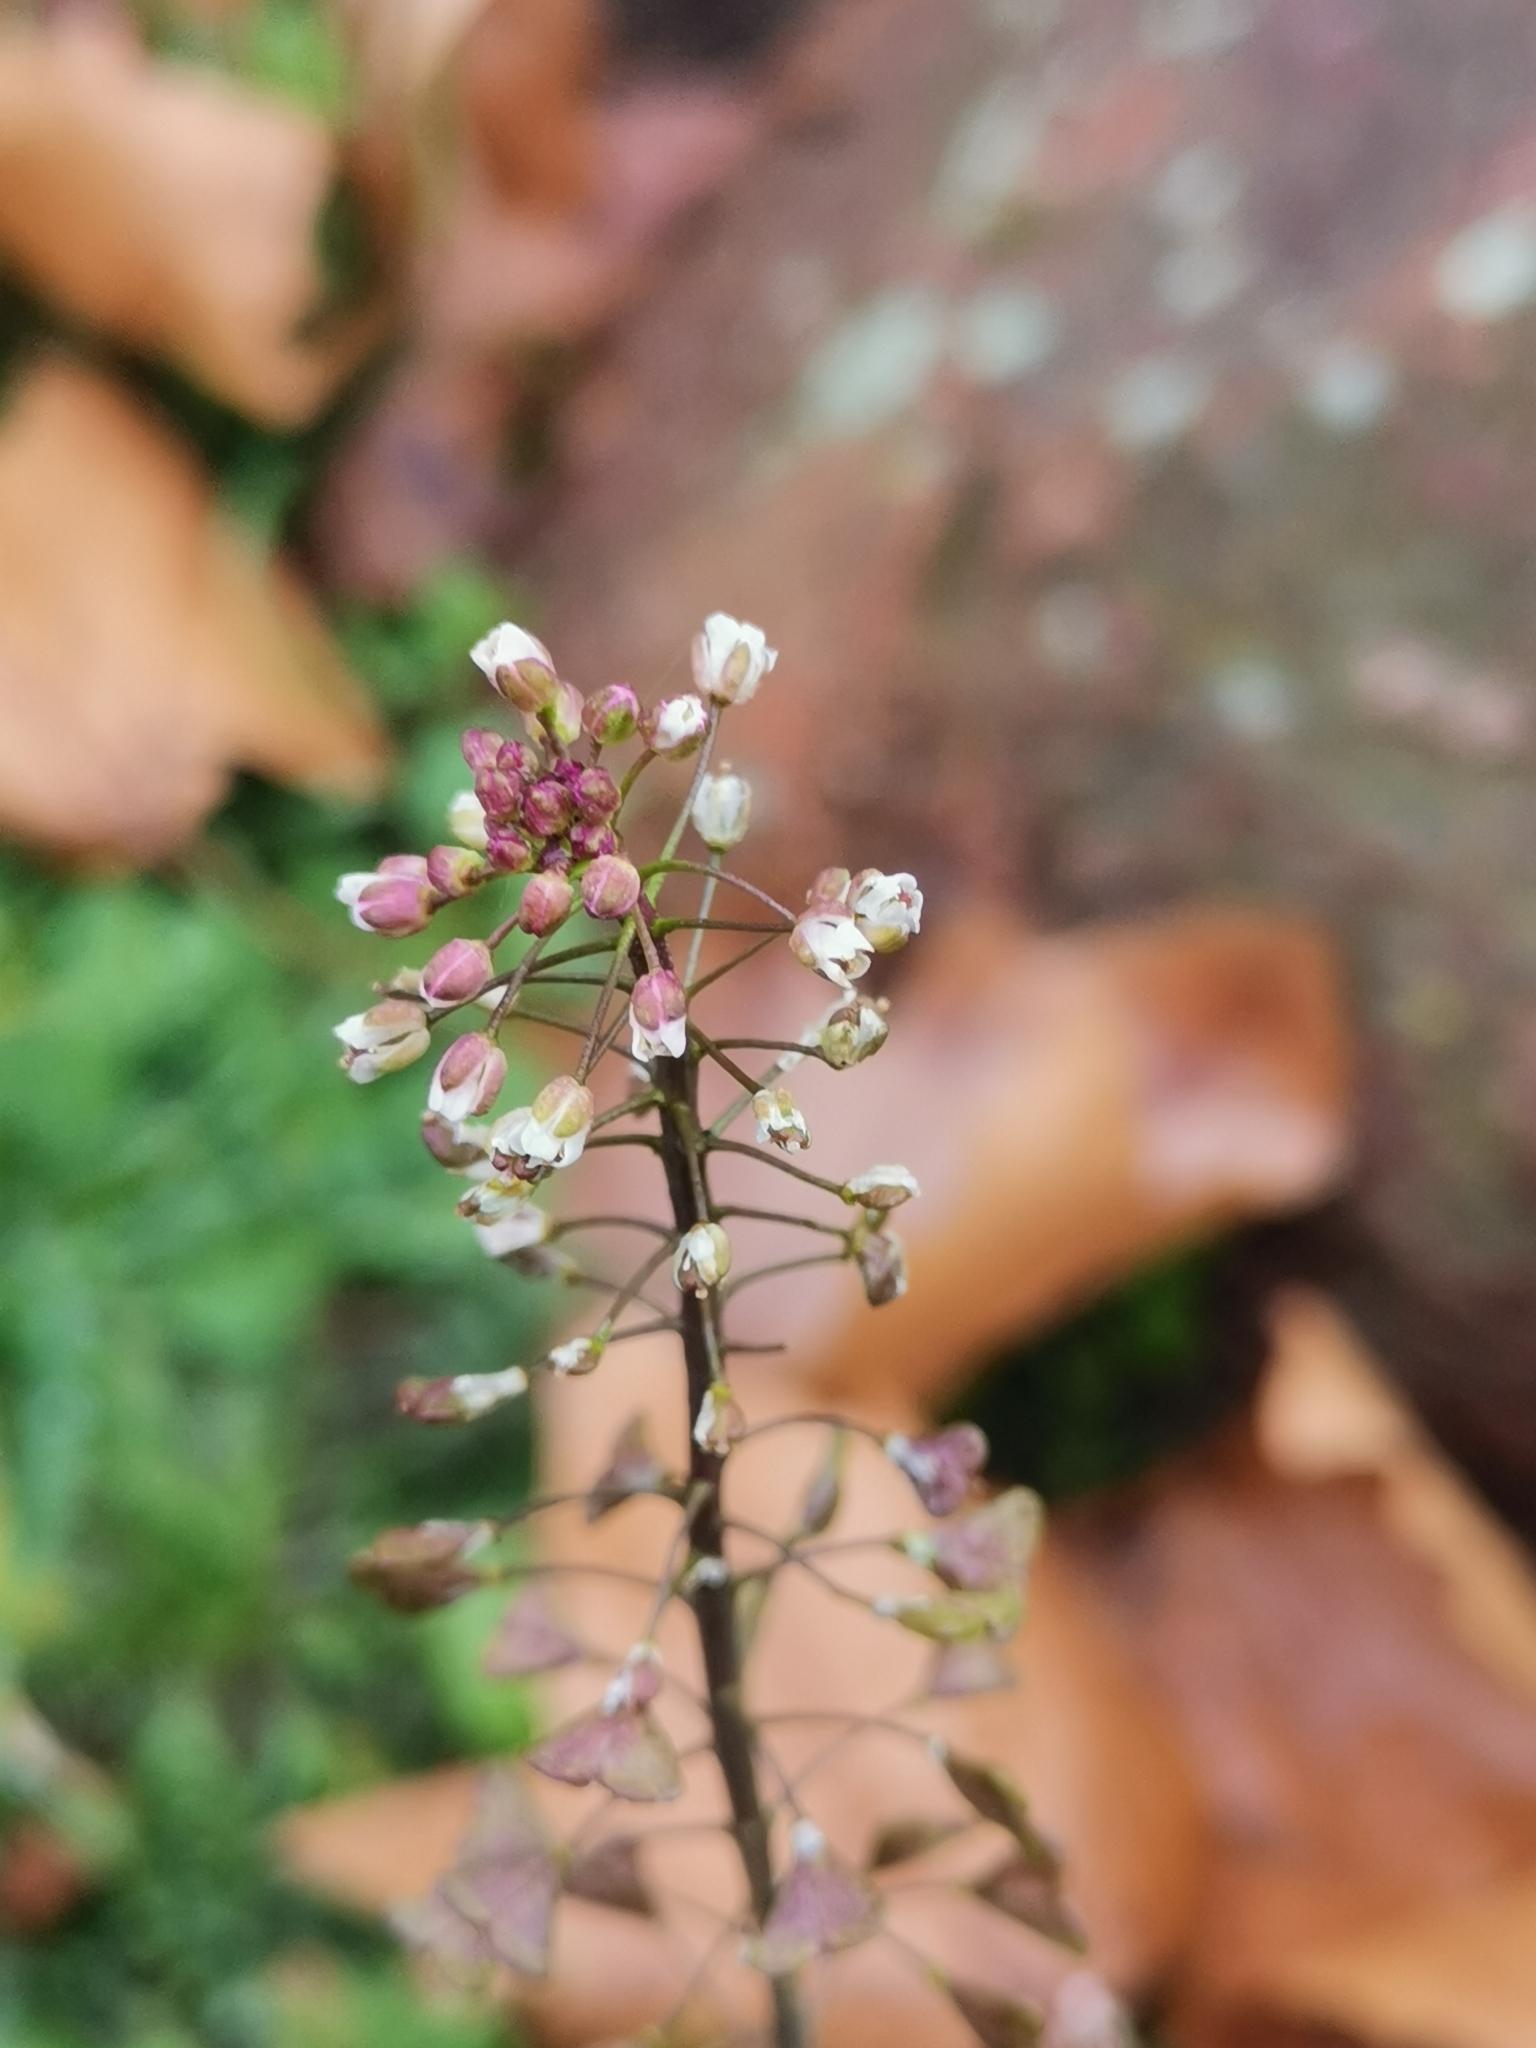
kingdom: Plantae
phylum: Tracheophyta
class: Magnoliopsida
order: Brassicales
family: Brassicaceae
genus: Capsella
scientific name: Capsella rubella
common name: Pink shepherd's-purse
